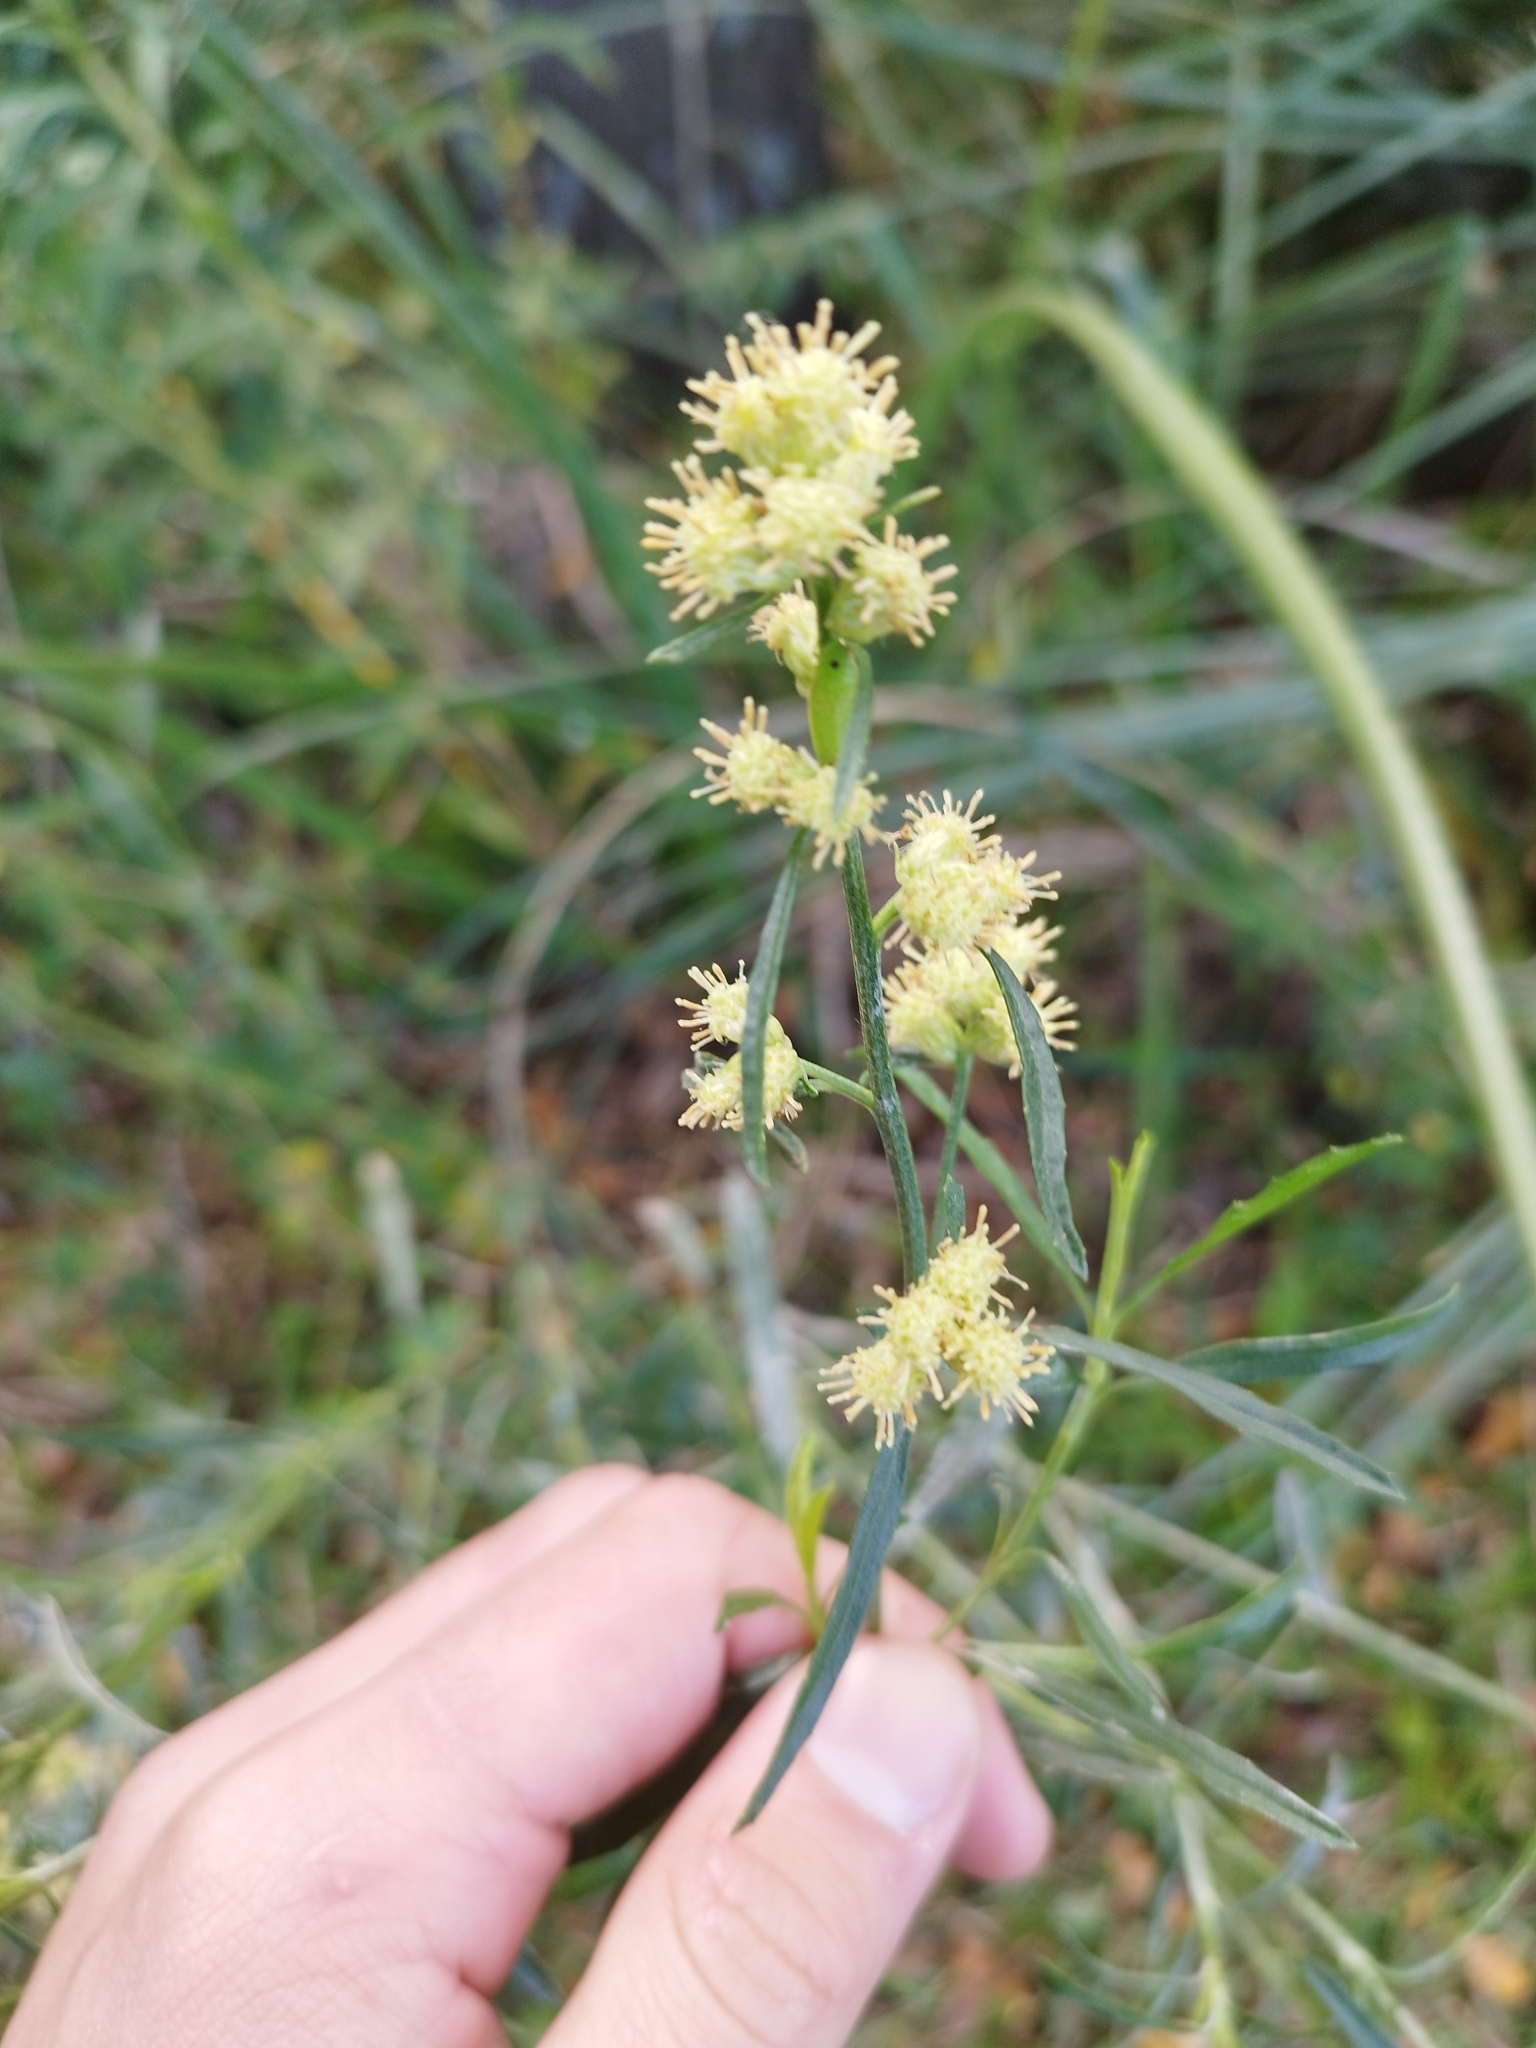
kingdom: Plantae
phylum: Tracheophyta
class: Magnoliopsida
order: Asterales
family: Asteraceae
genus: Baccharis
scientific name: Baccharis spicata
